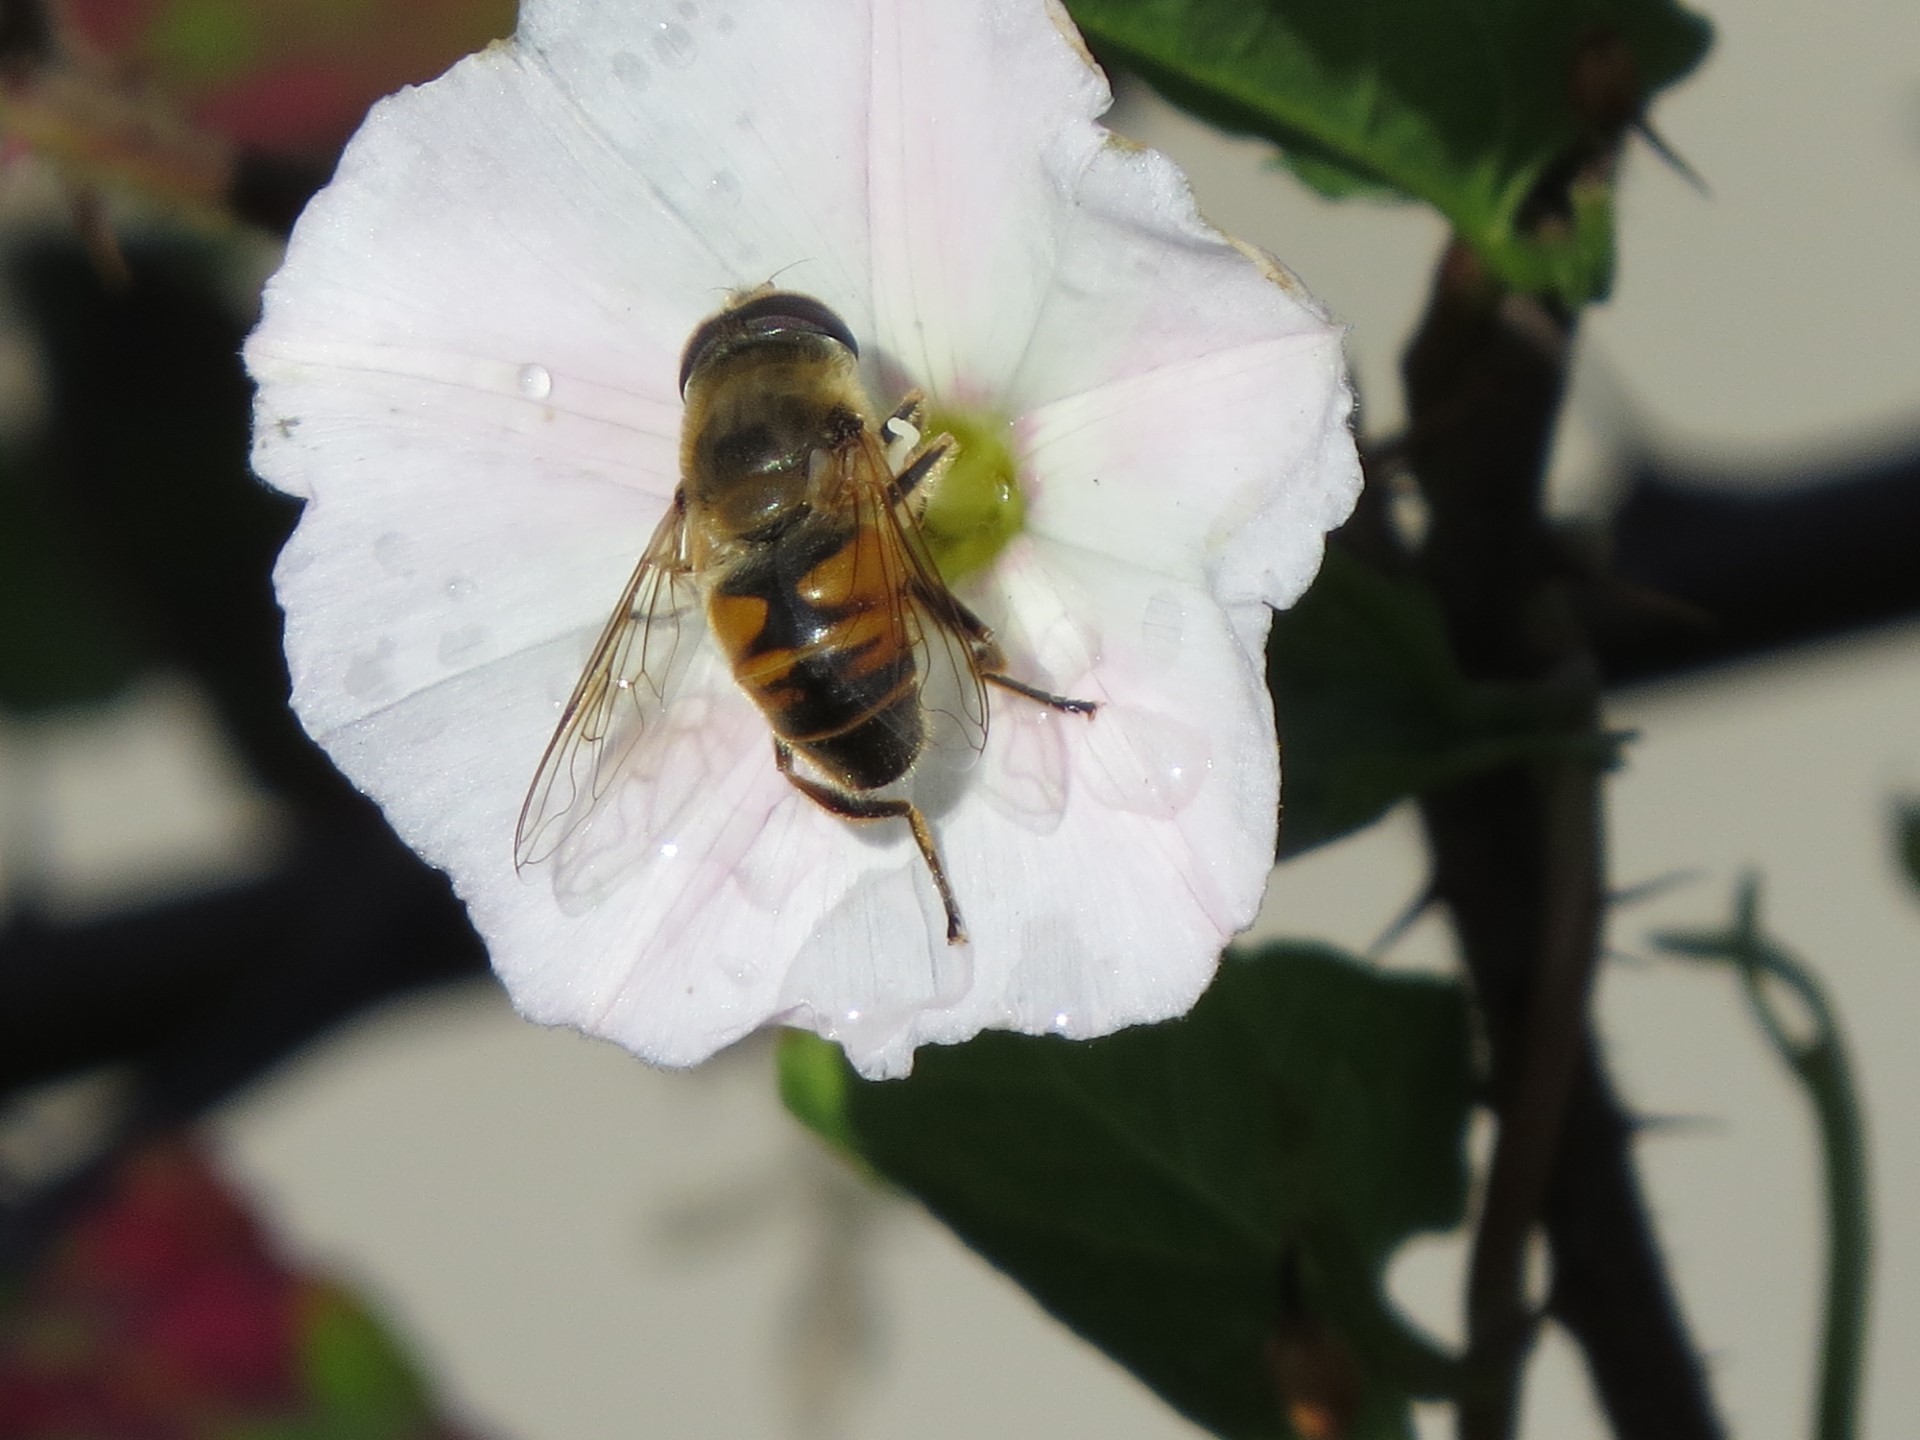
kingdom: Animalia
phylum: Arthropoda
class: Insecta
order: Diptera
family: Syrphidae
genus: Eristalis
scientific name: Eristalis tenax
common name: Drone fly
